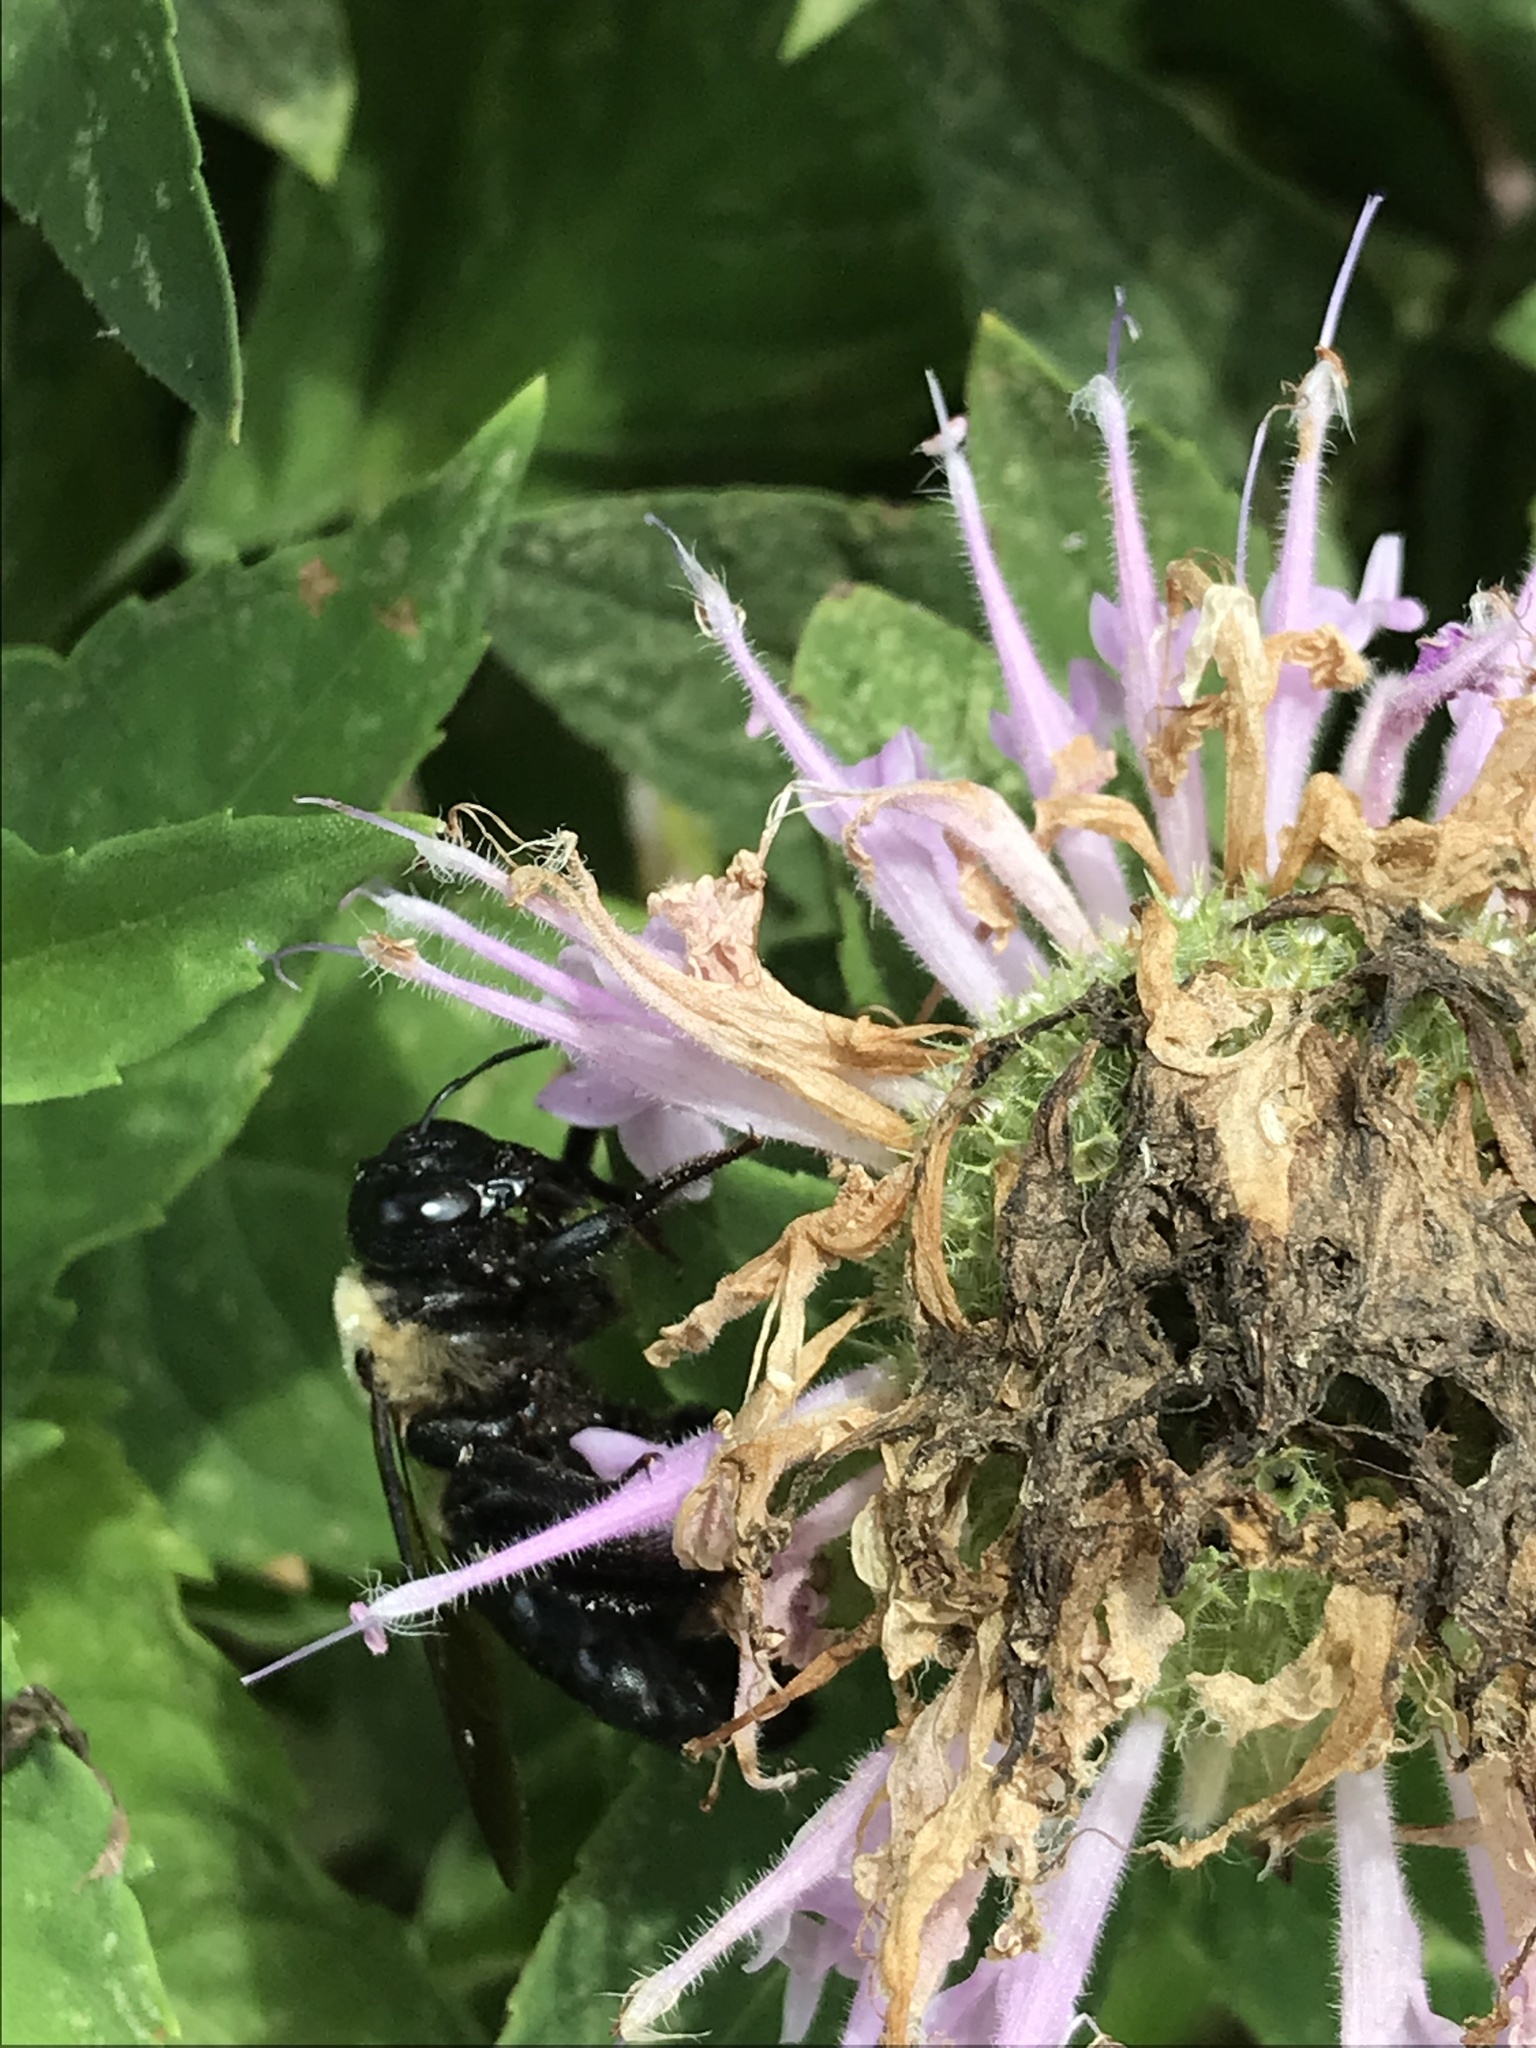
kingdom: Animalia
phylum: Arthropoda
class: Insecta
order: Hymenoptera
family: Apidae
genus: Xylocopa
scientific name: Xylocopa virginica
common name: Carpenter bee
